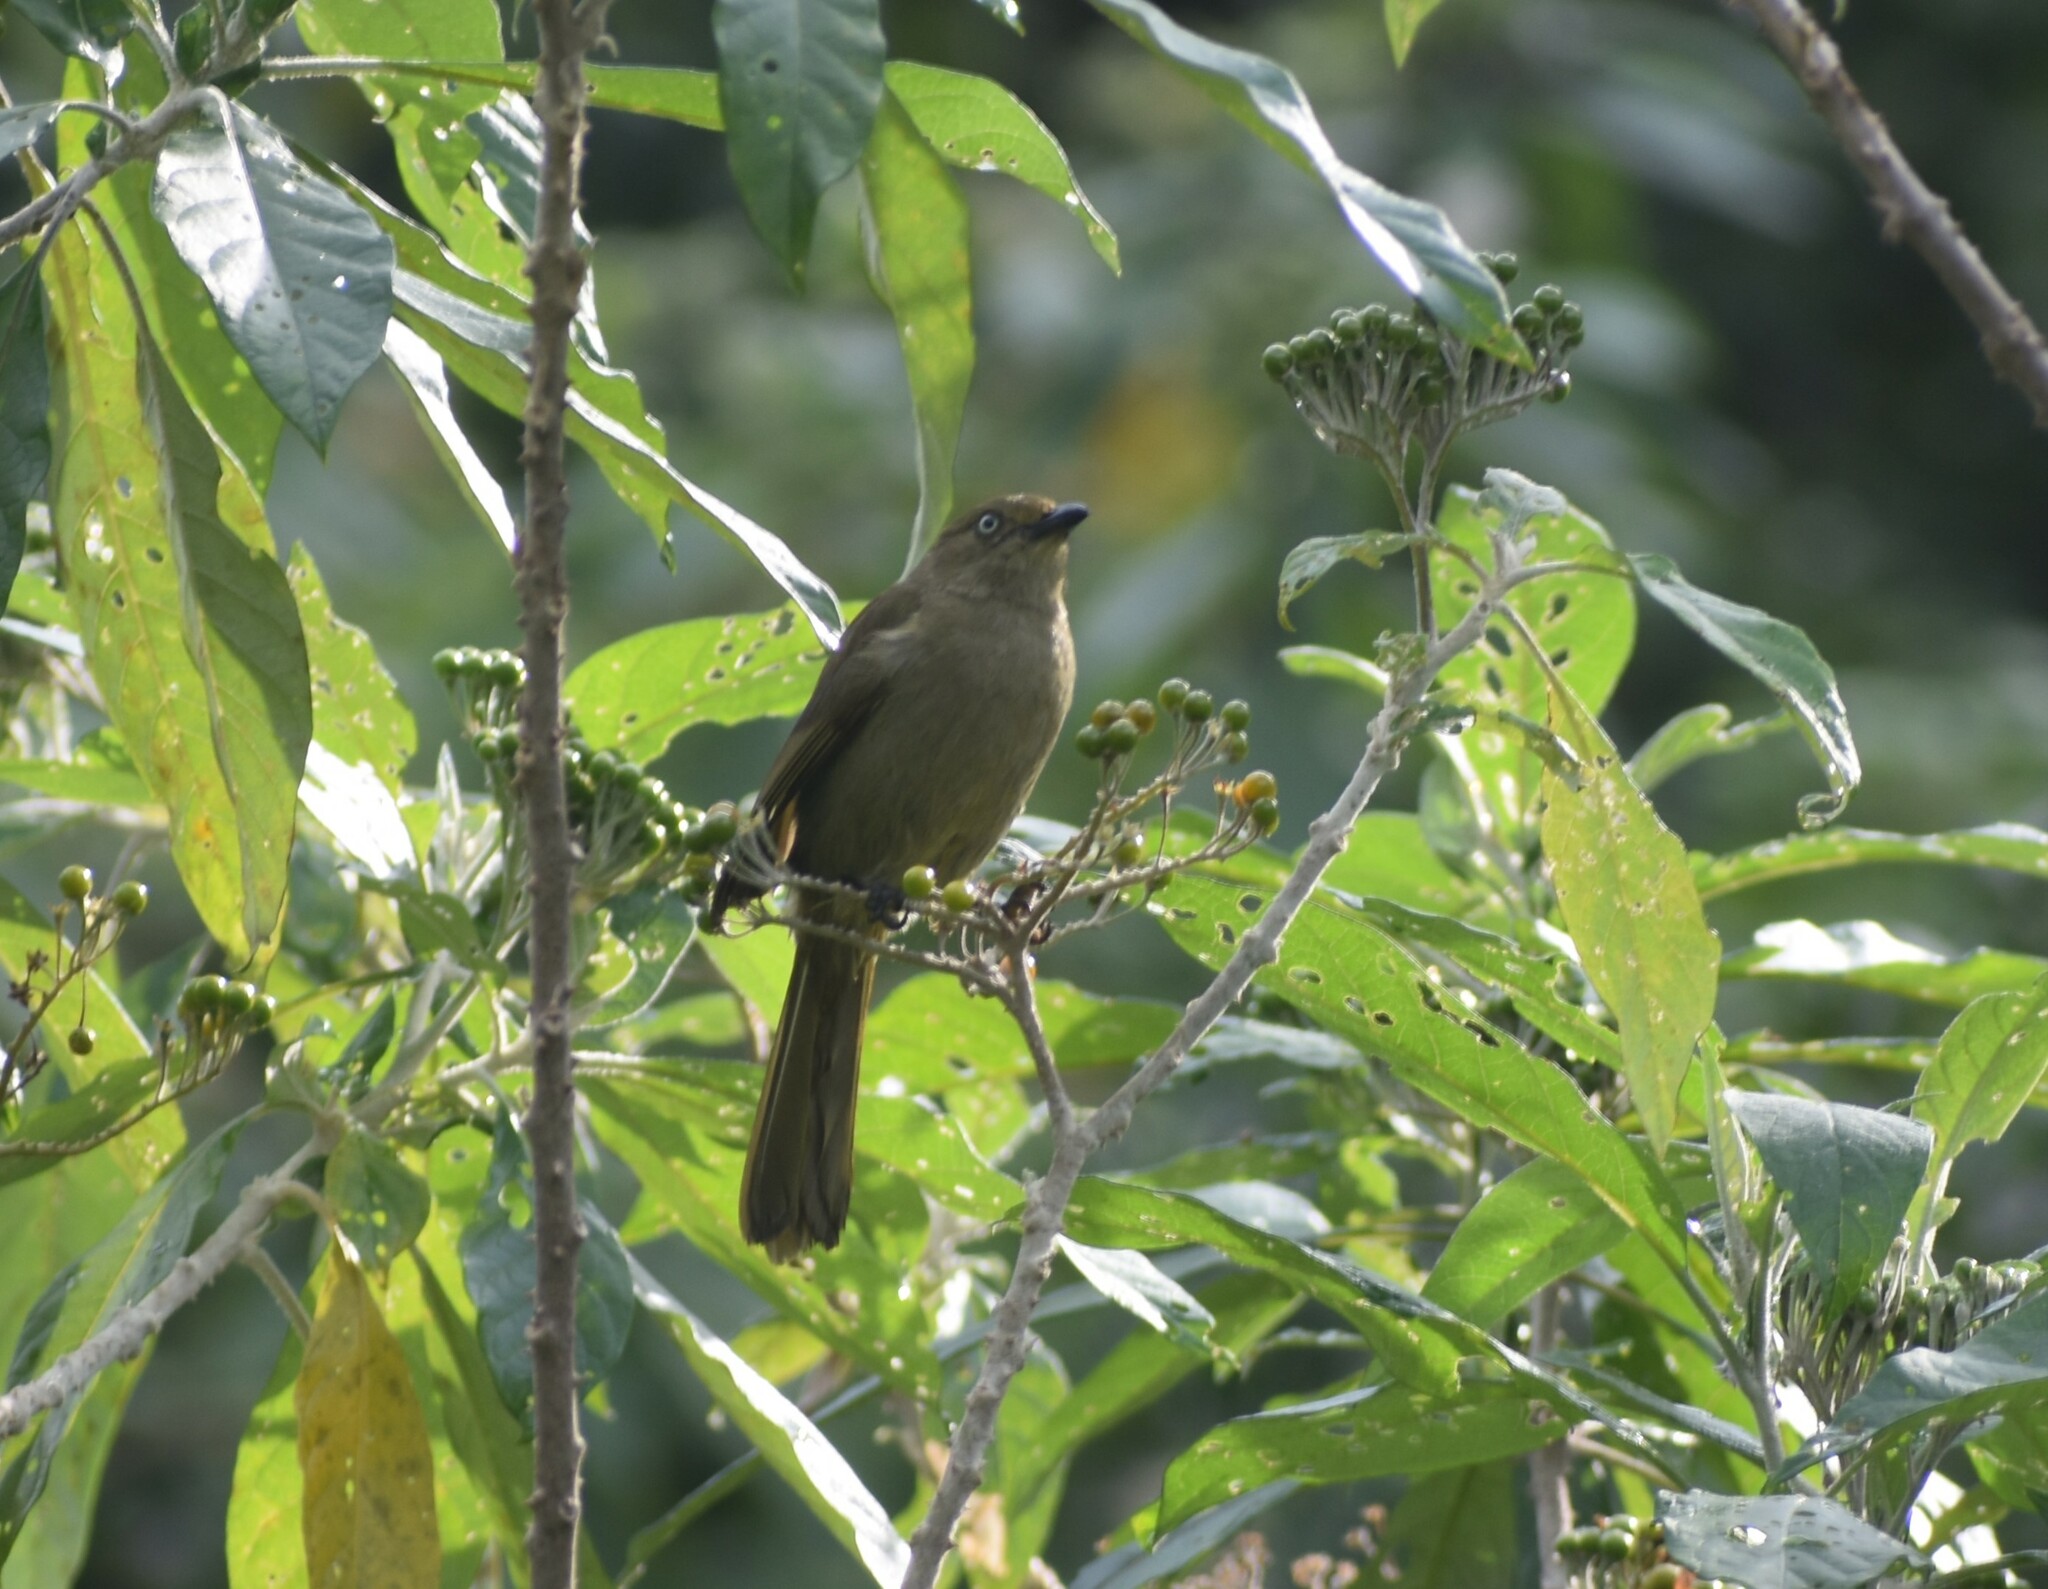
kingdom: Animalia
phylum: Chordata
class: Aves
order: Passeriformes
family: Pycnonotidae
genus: Andropadus
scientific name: Andropadus importunus
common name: Sombre greenbul
